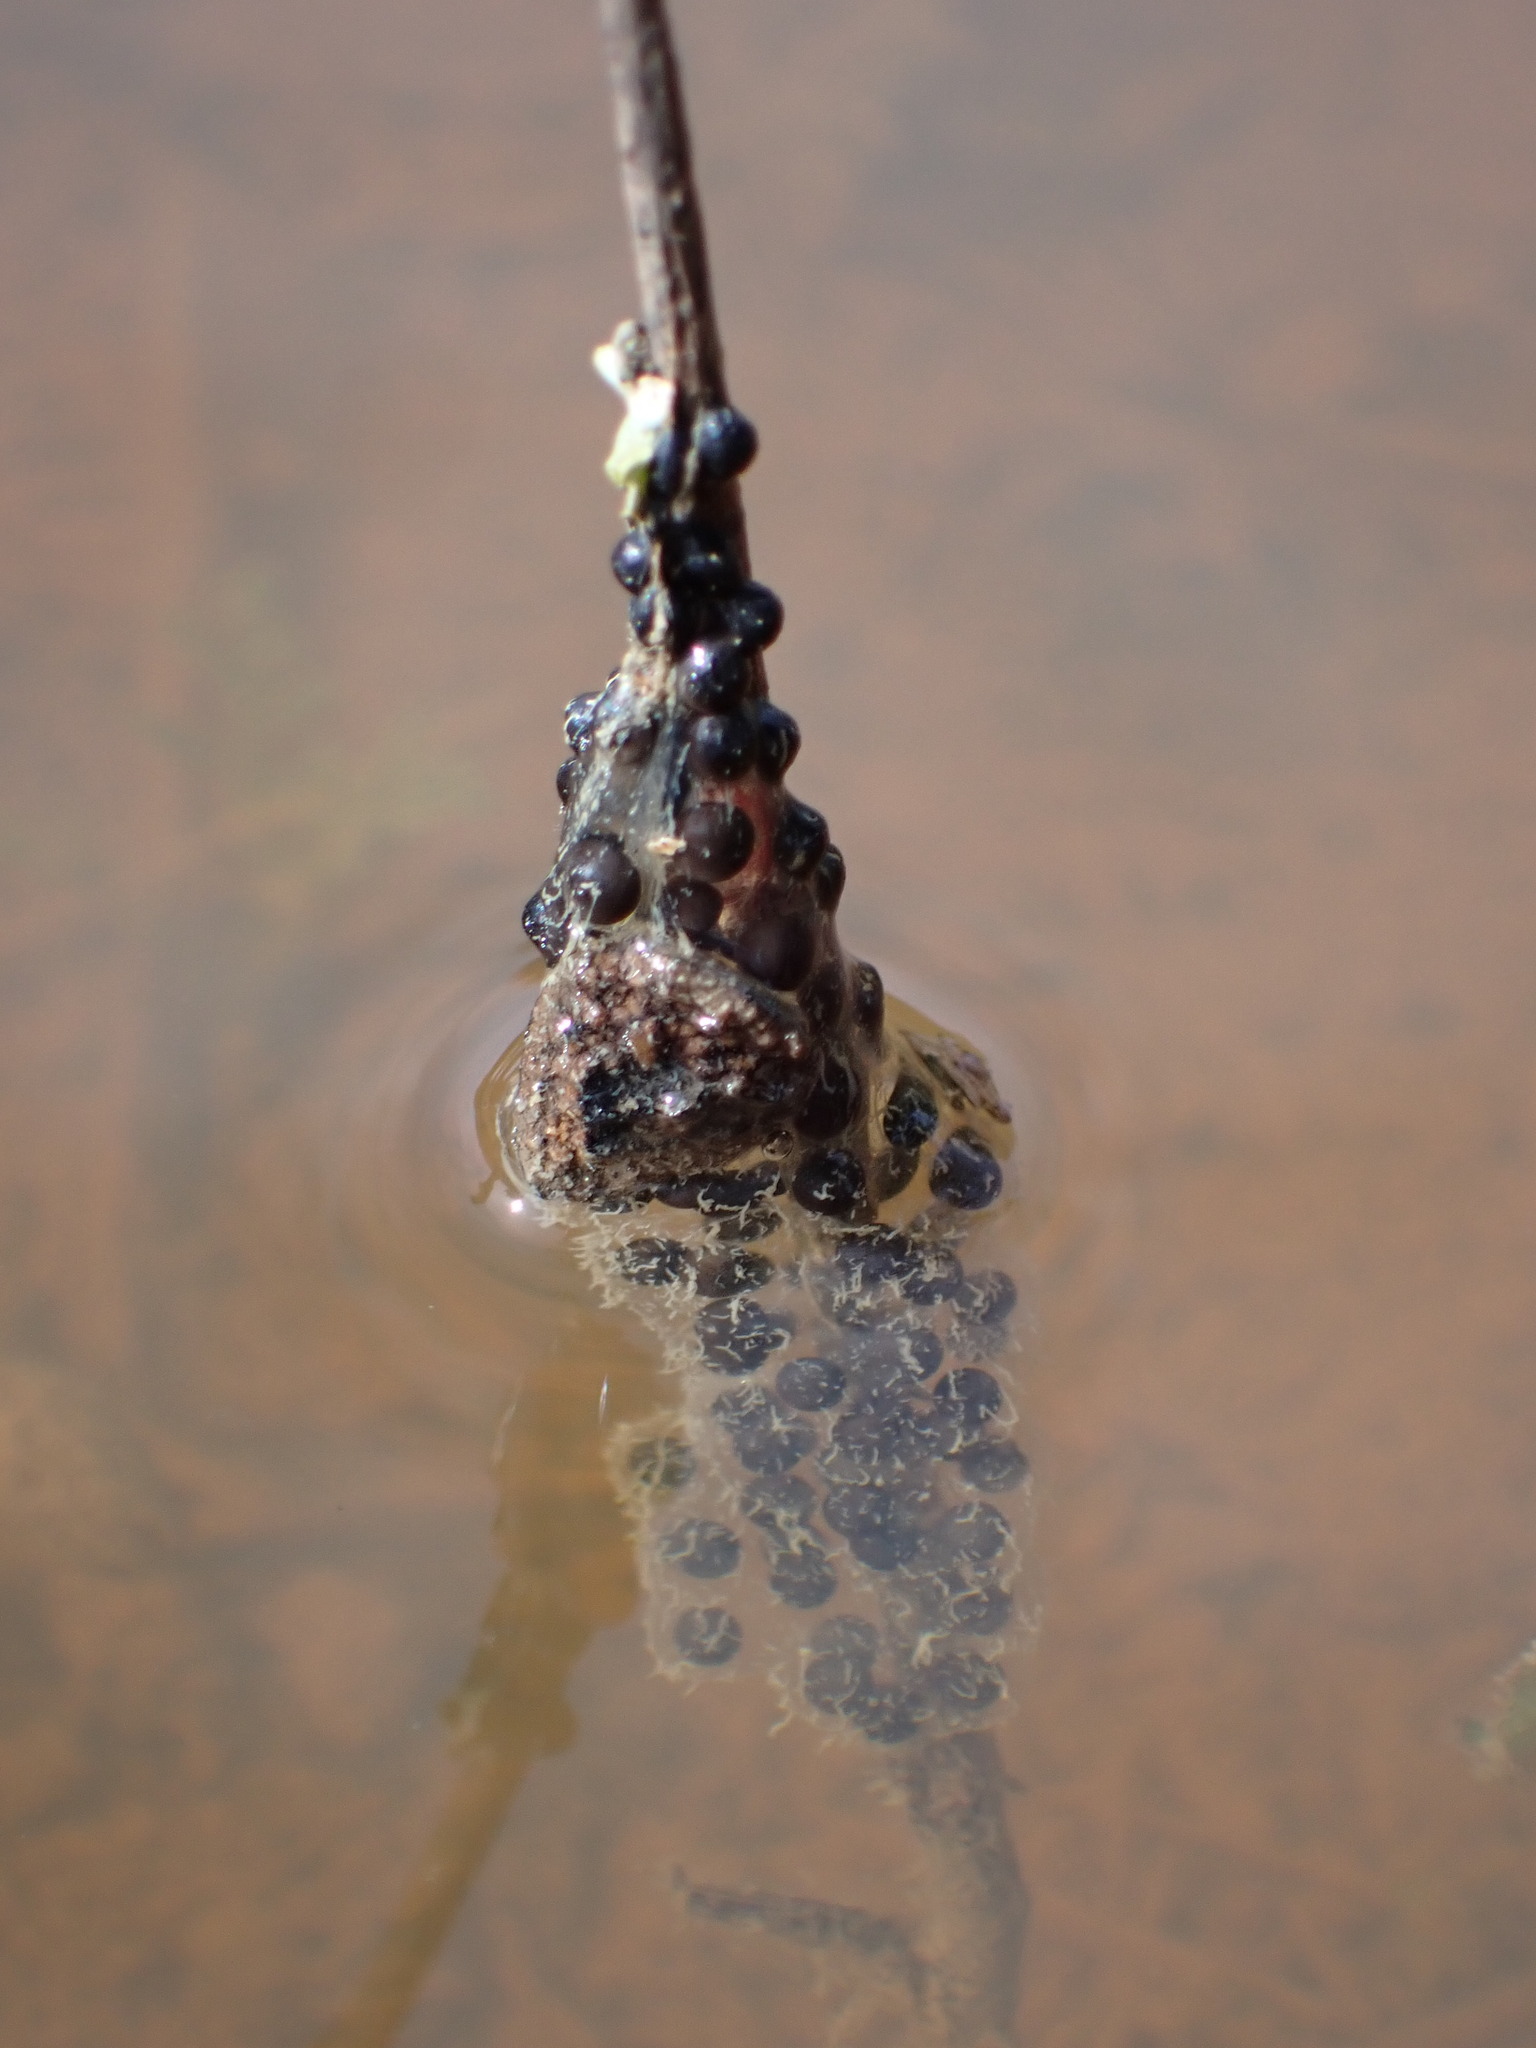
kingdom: Animalia
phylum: Chordata
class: Amphibia
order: Anura
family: Pelodytidae
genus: Pelodytes
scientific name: Pelodytes punctatus
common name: Parsley frog
